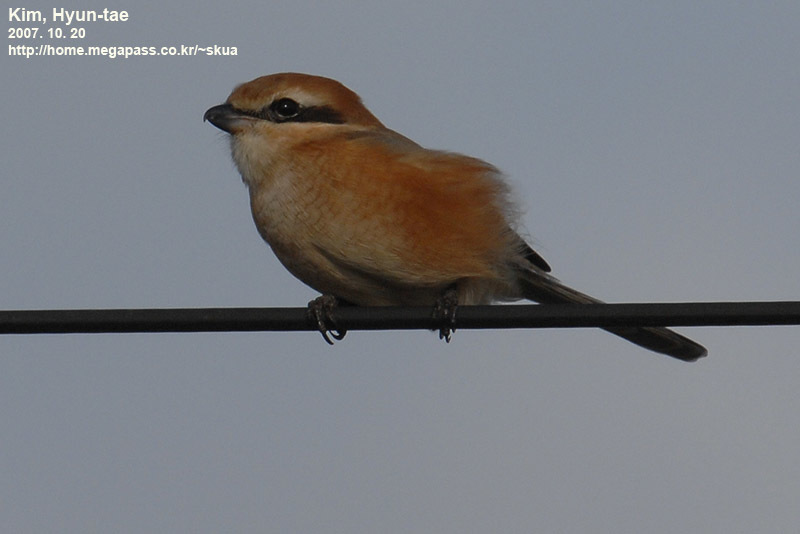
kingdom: Animalia
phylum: Chordata
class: Aves
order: Passeriformes
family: Laniidae
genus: Lanius
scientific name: Lanius bucephalus
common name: Bull-headed shrike
